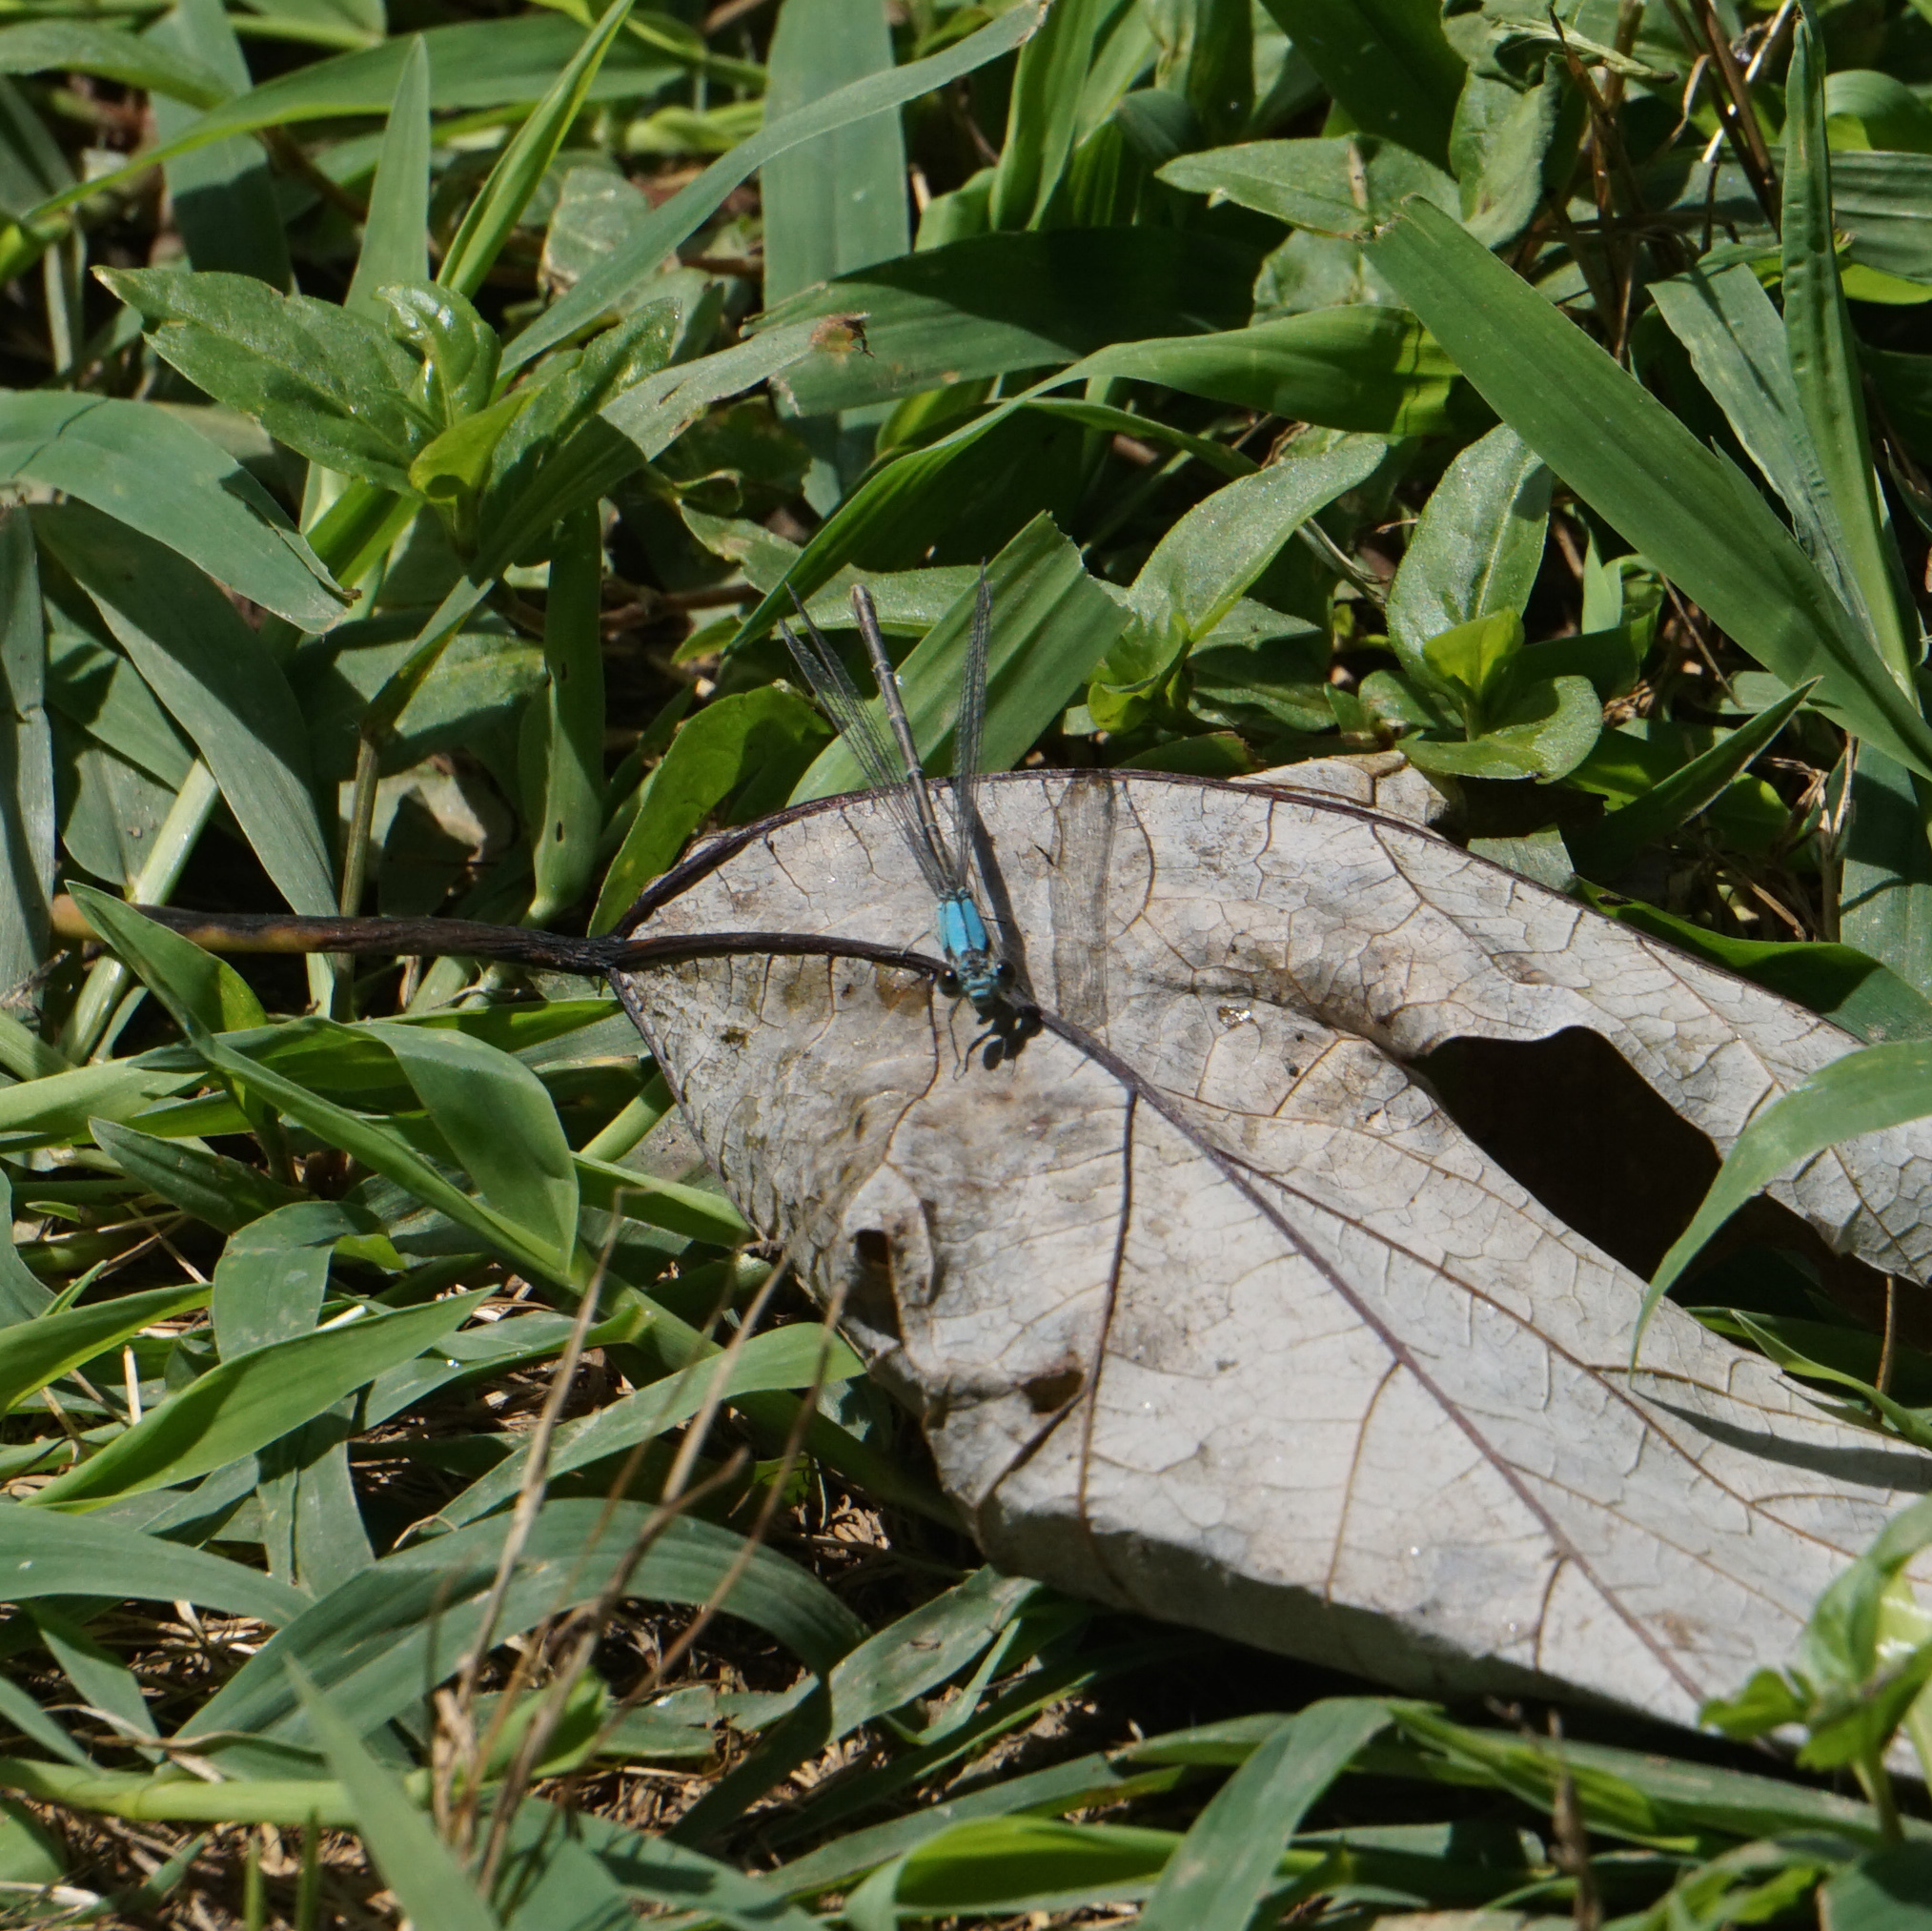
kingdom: Animalia
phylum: Arthropoda
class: Insecta
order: Odonata
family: Coenagrionidae
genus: Argia
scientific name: Argia moesta
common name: Powdered dancer
